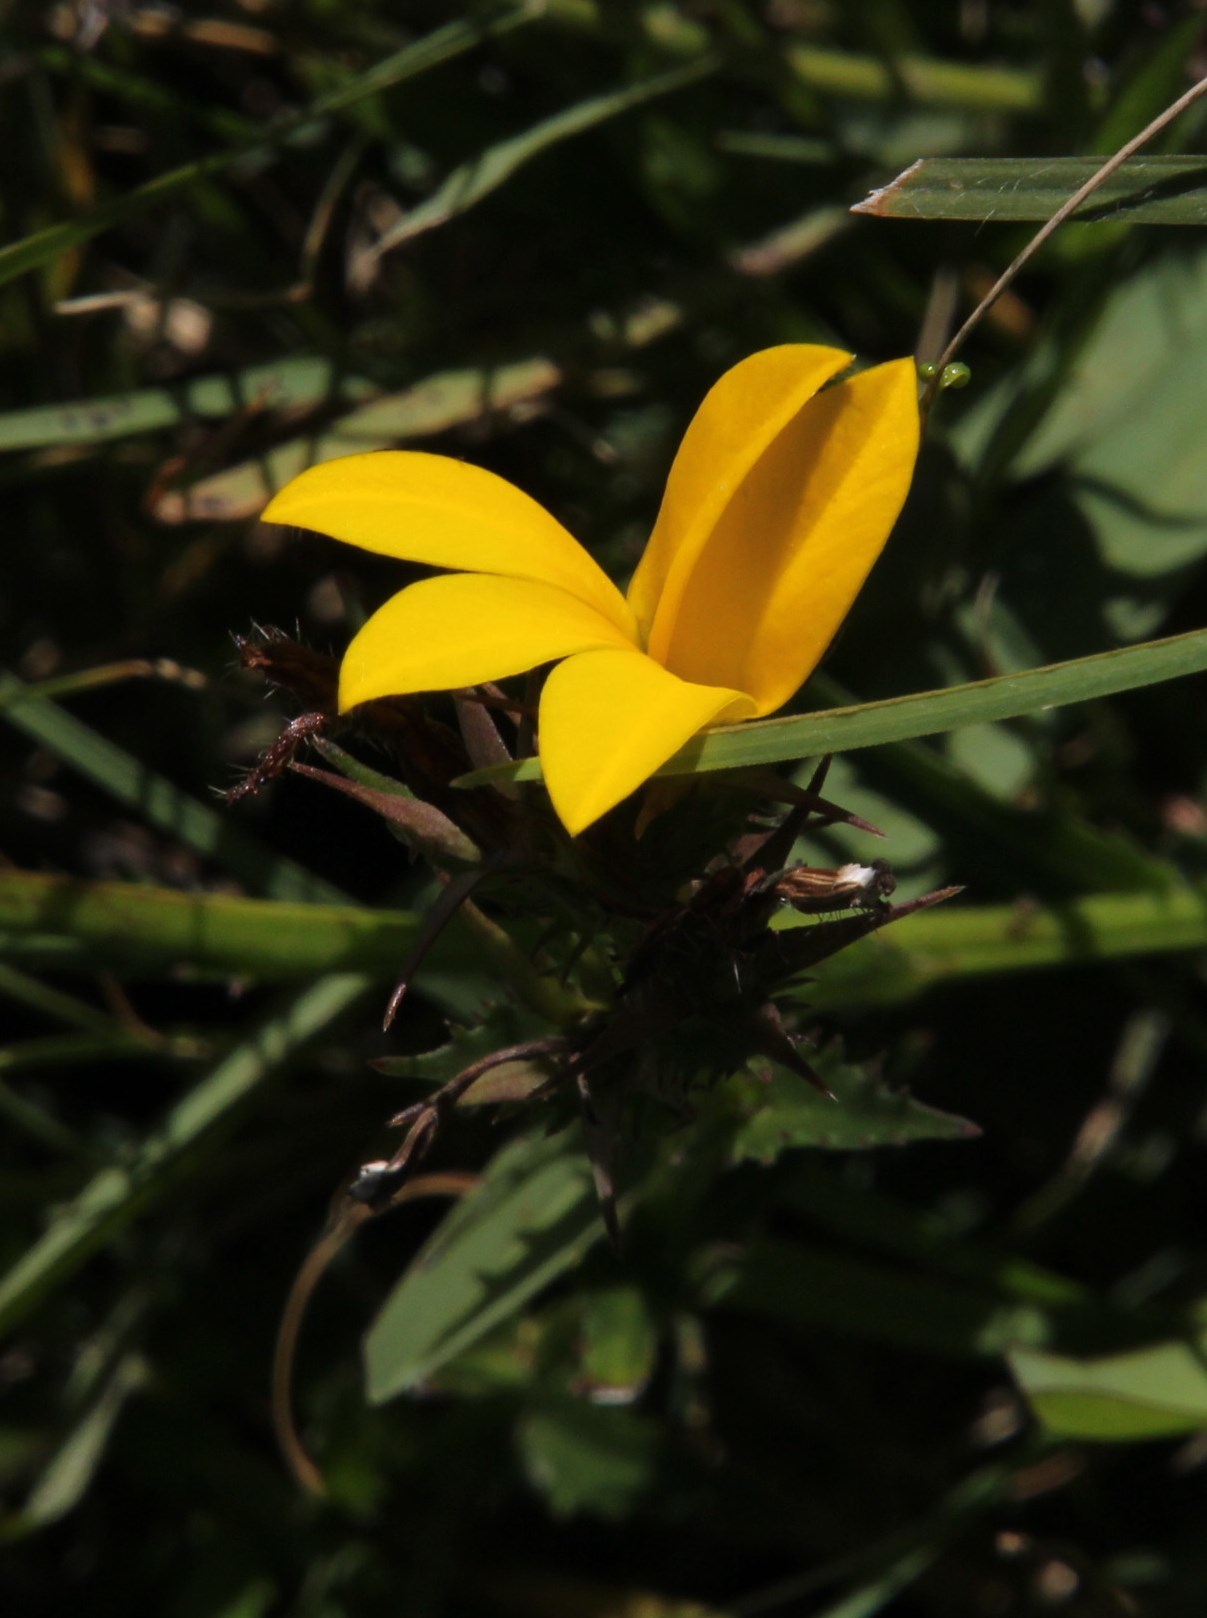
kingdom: Plantae
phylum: Tracheophyta
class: Magnoliopsida
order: Asterales
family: Campanulaceae
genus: Monopsis
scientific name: Monopsis lutea
